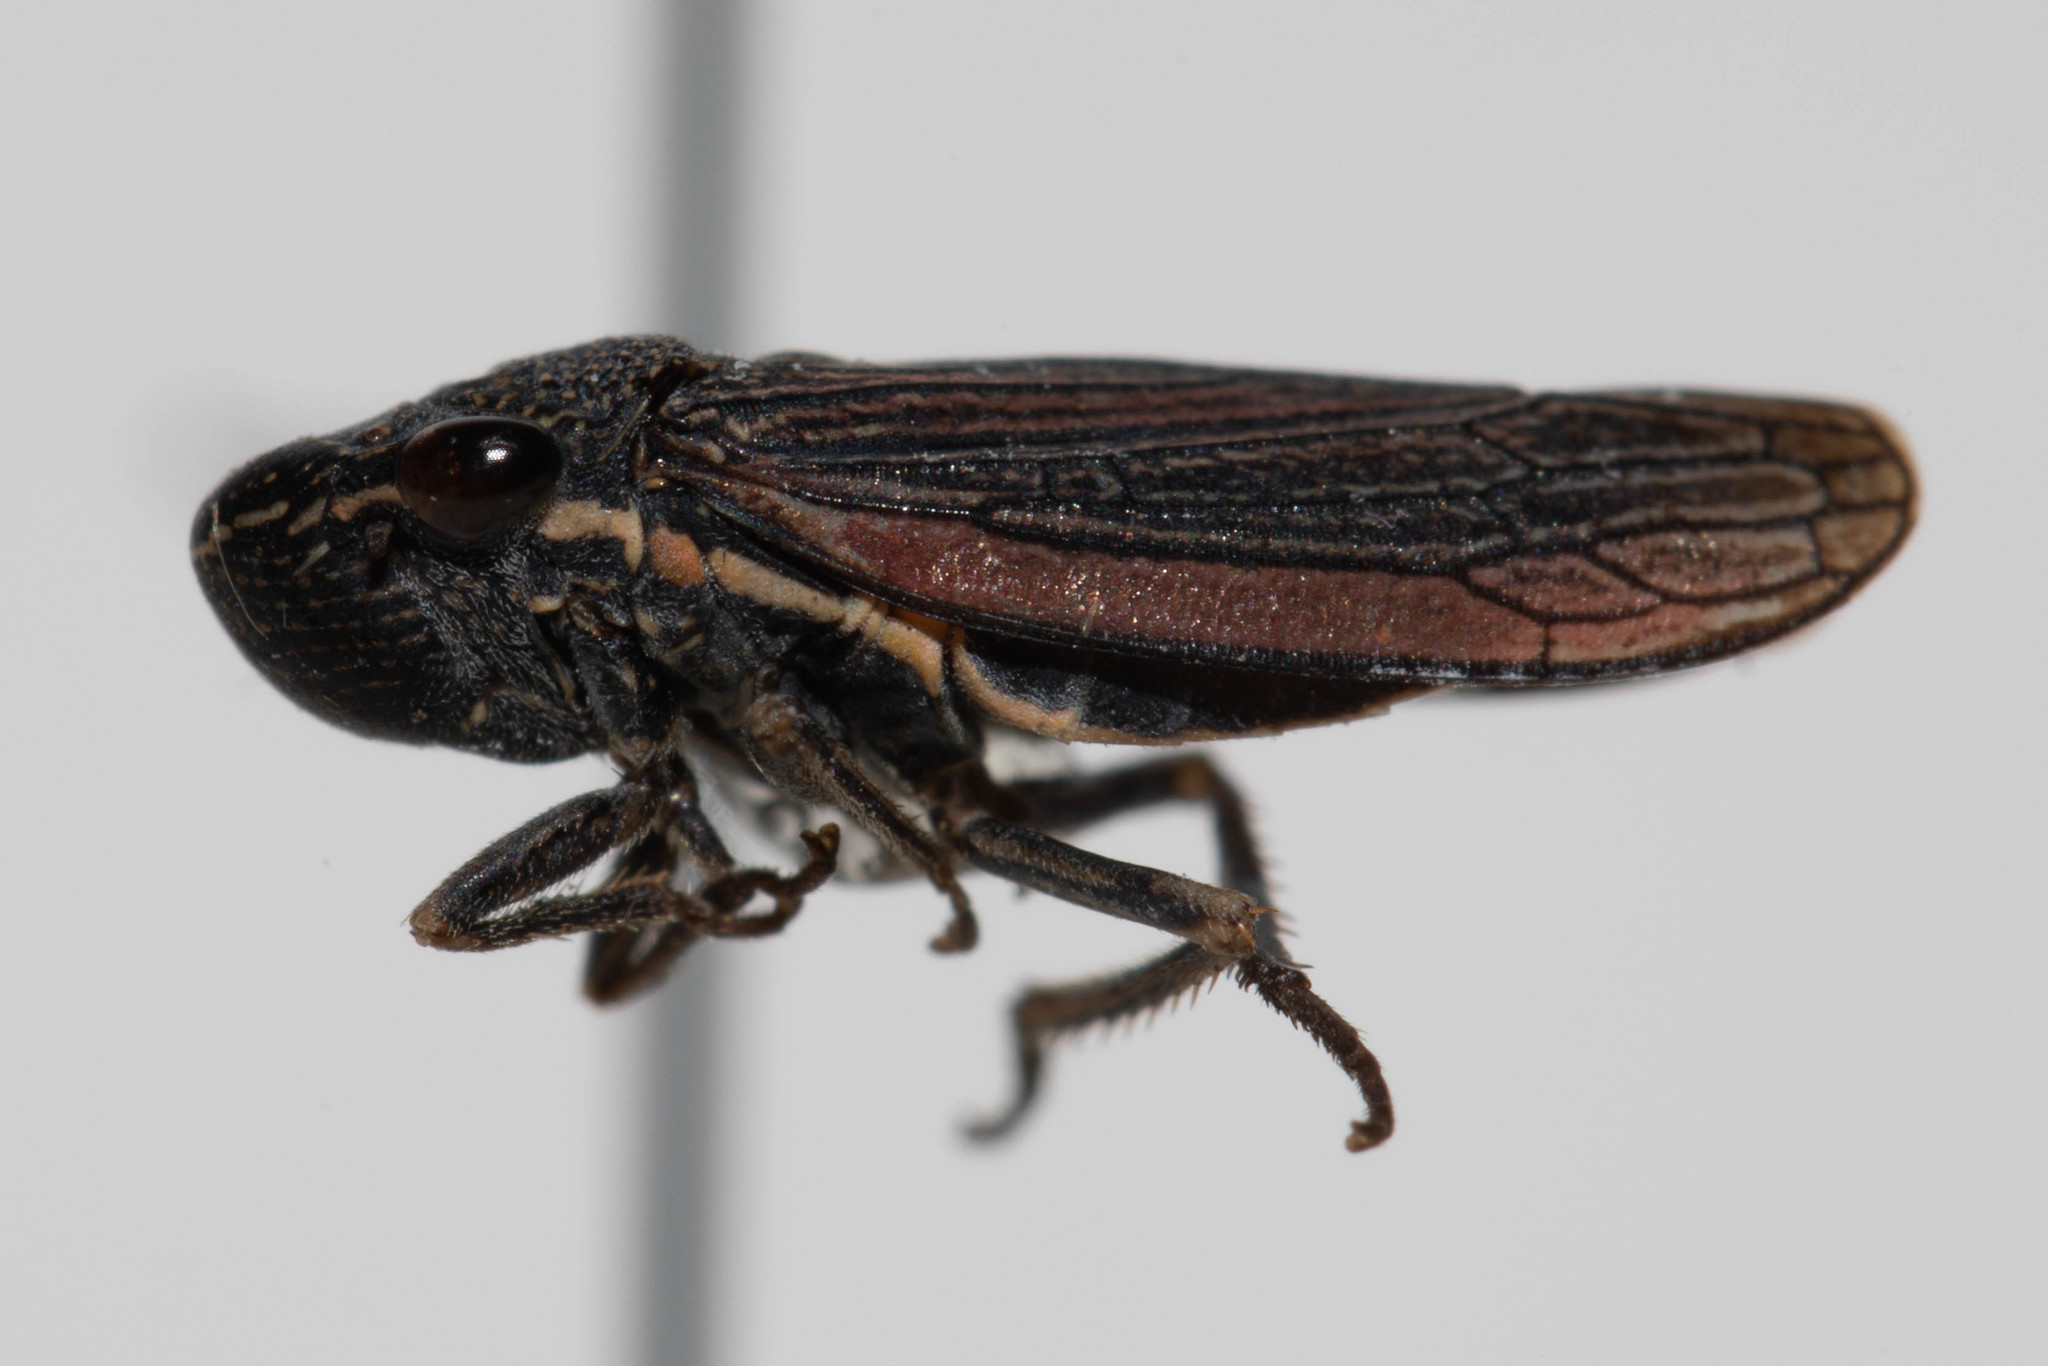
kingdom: Animalia
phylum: Arthropoda
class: Insecta
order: Hemiptera
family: Cicadellidae
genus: Cuerna
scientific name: Cuerna striata
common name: Striped leafhopper
